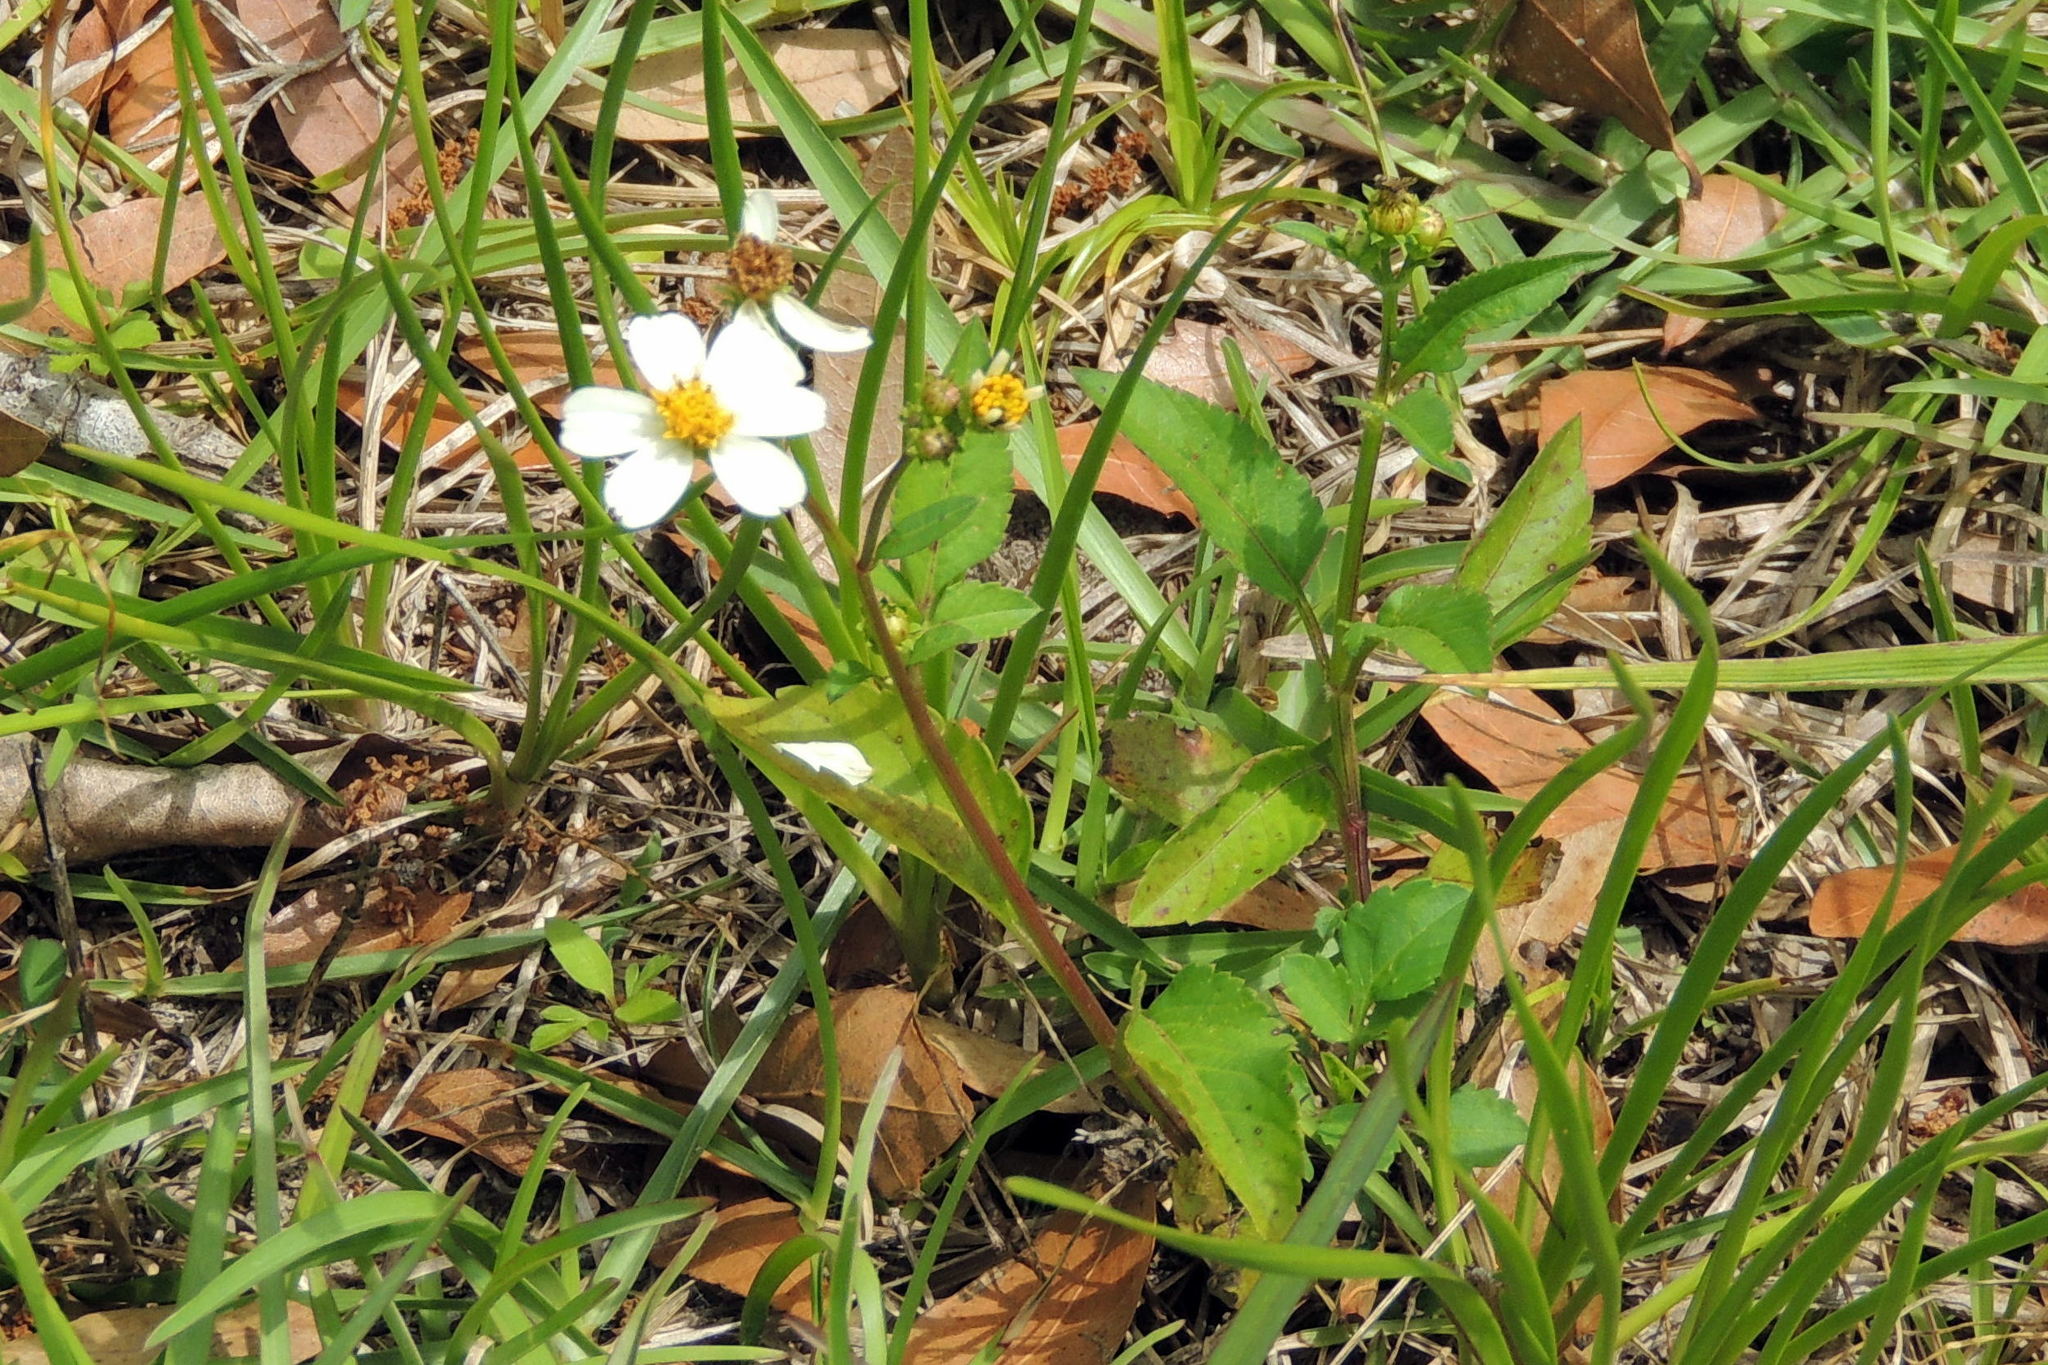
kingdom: Plantae
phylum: Tracheophyta
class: Magnoliopsida
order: Asterales
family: Asteraceae
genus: Bidens
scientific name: Bidens alba
